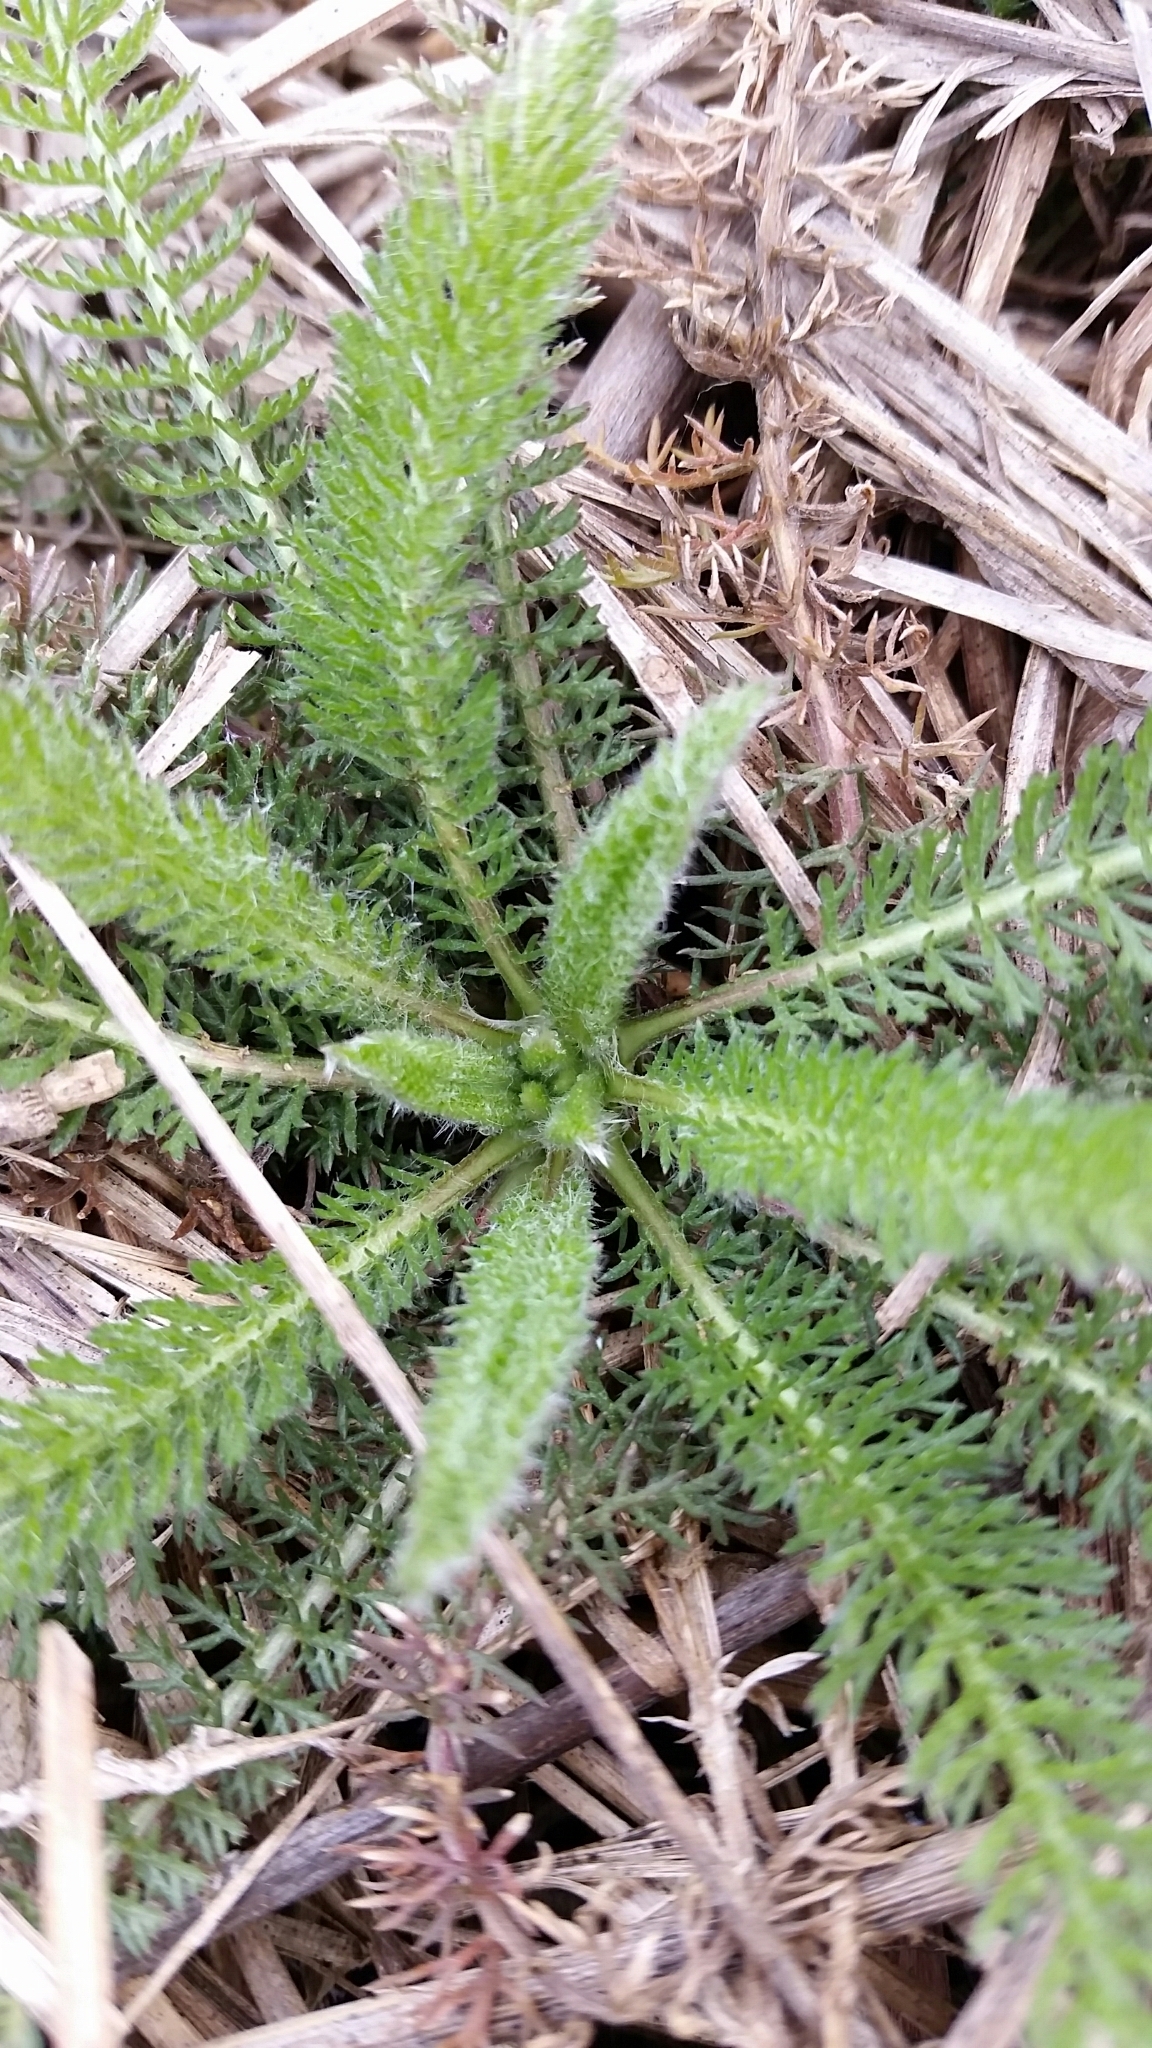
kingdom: Plantae
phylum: Tracheophyta
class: Magnoliopsida
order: Asterales
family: Asteraceae
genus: Achillea
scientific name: Achillea millefolium
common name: Yarrow
